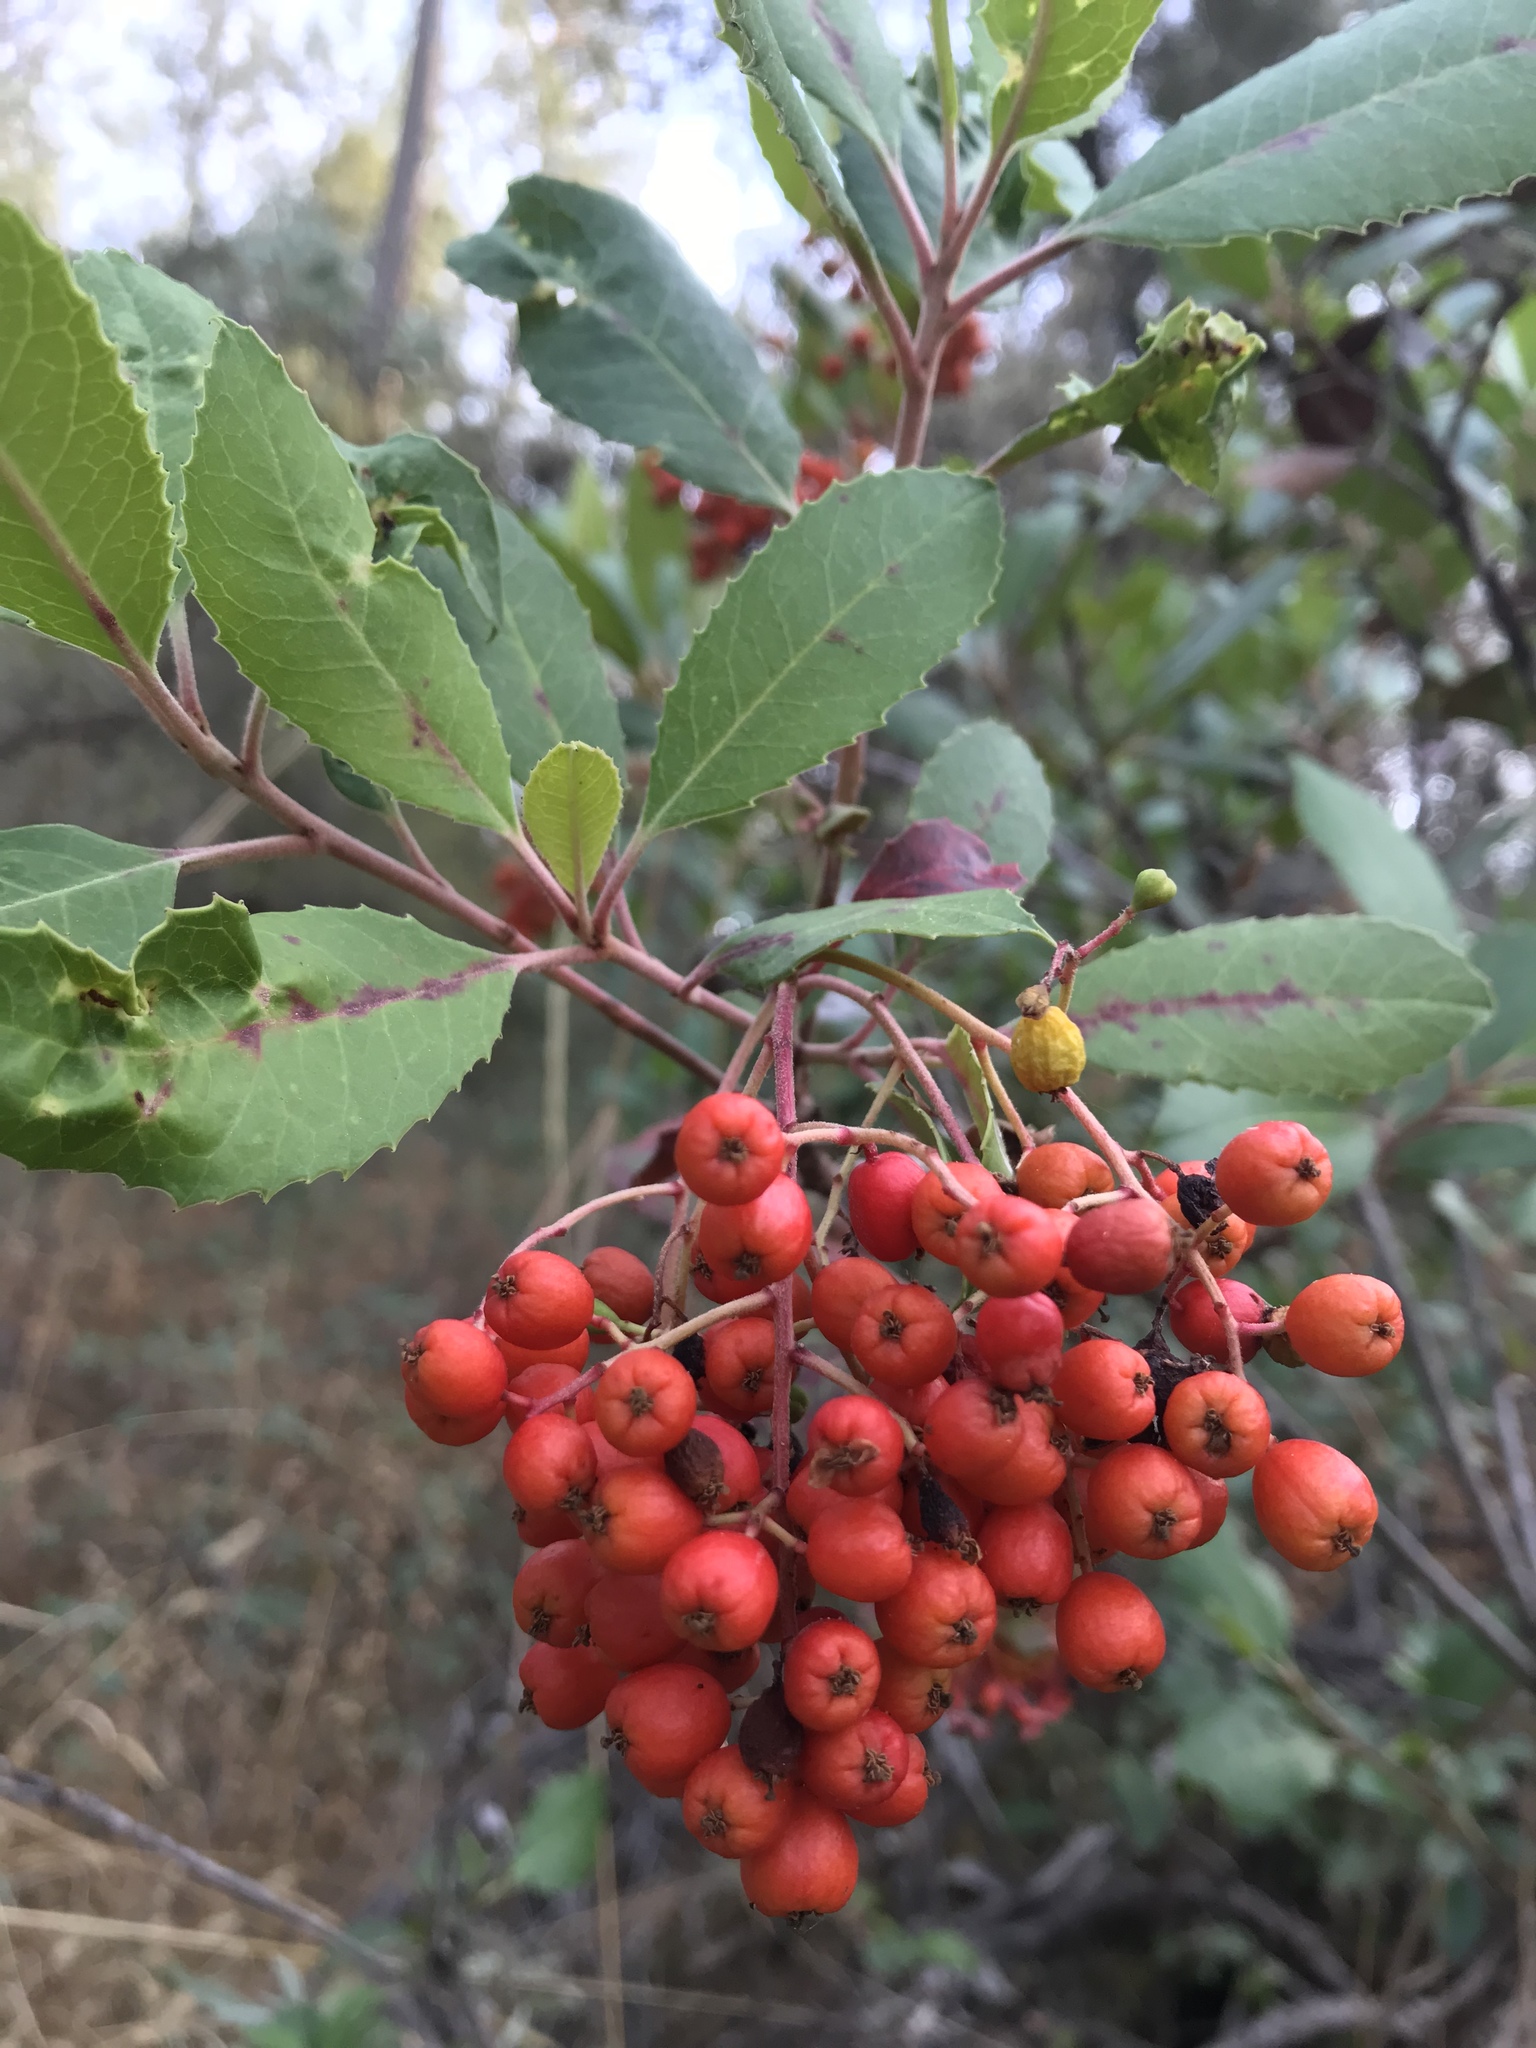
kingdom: Plantae
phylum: Tracheophyta
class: Magnoliopsida
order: Rosales
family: Rosaceae
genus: Heteromeles
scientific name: Heteromeles arbutifolia
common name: California-holly
